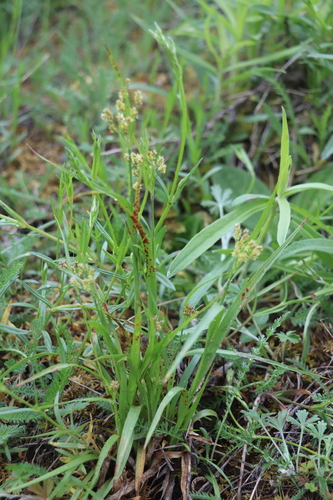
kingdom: Fungi
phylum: Basidiomycota
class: Pucciniomycetes
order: Pucciniales
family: Pucciniaceae
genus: Puccinia
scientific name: Puccinia obscura
